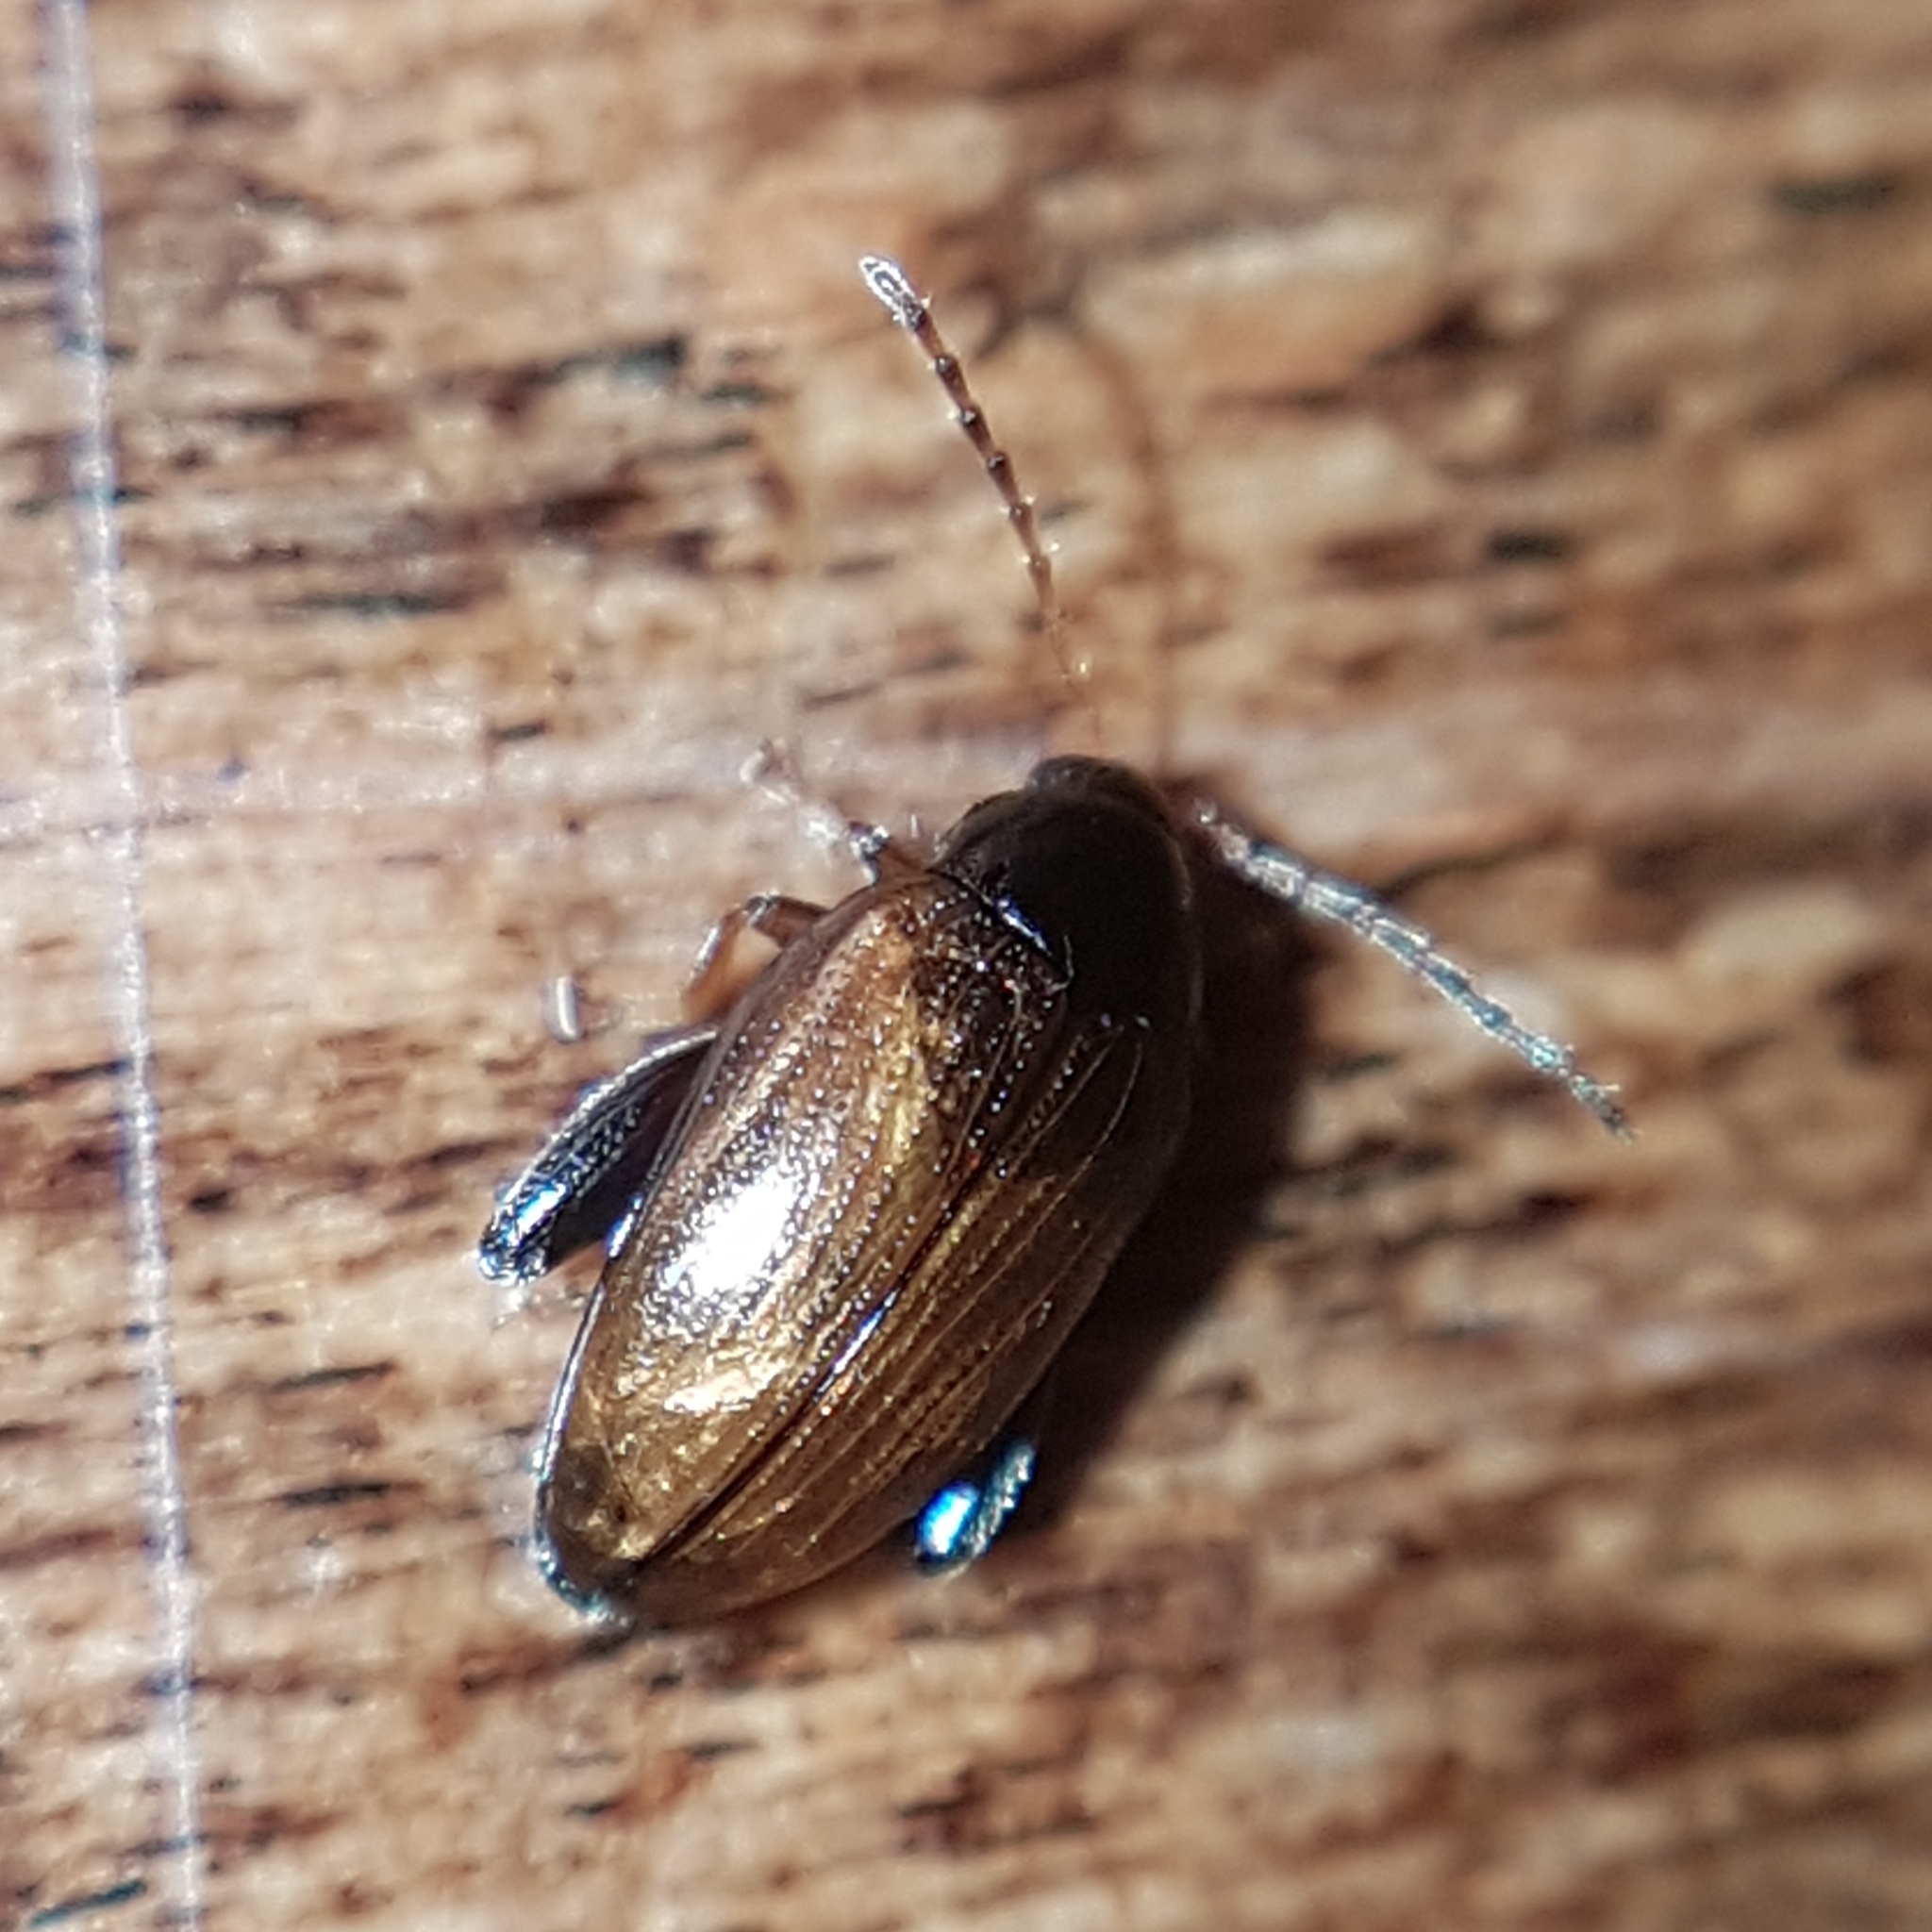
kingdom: Animalia
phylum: Arthropoda
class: Insecta
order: Coleoptera
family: Chrysomelidae
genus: Psylliodes
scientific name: Psylliodes chrysocephalus
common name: Cabbage-stem flea beetle
